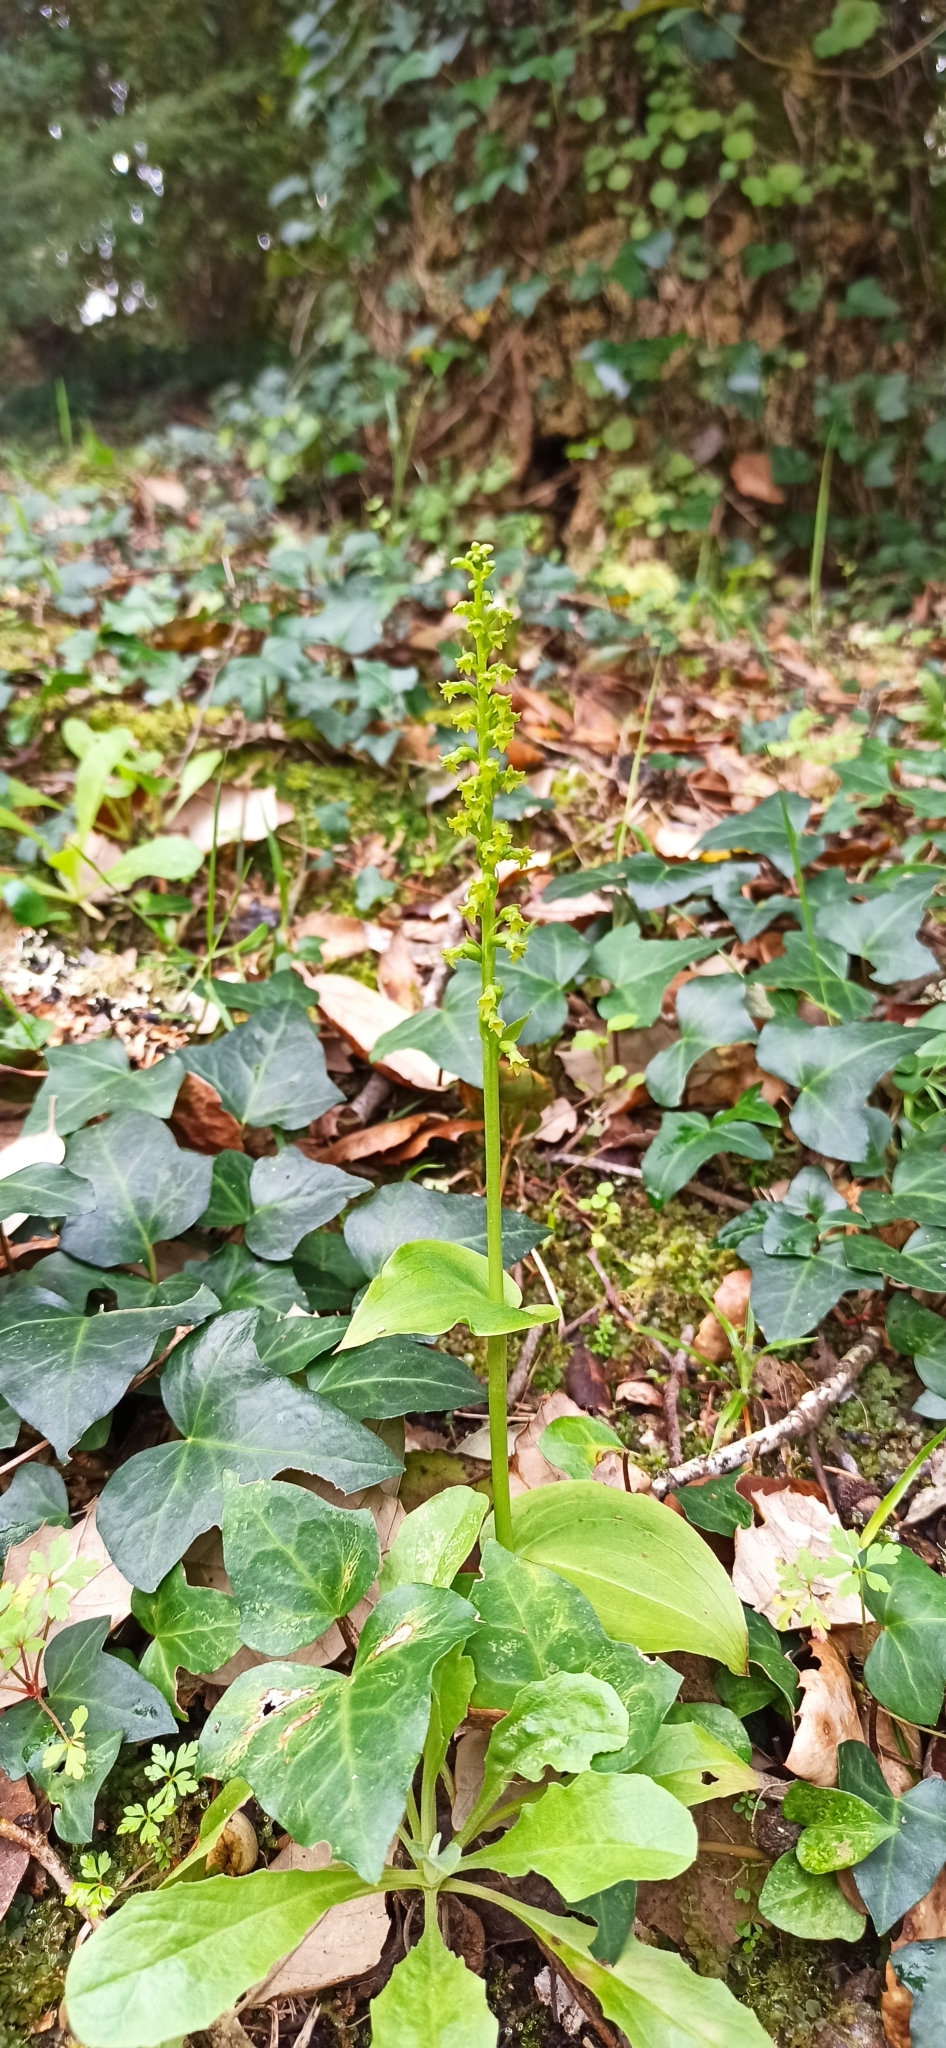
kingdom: Plantae
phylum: Tracheophyta
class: Liliopsida
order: Asparagales
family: Orchidaceae
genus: Gennaria
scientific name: Gennaria diphylla
